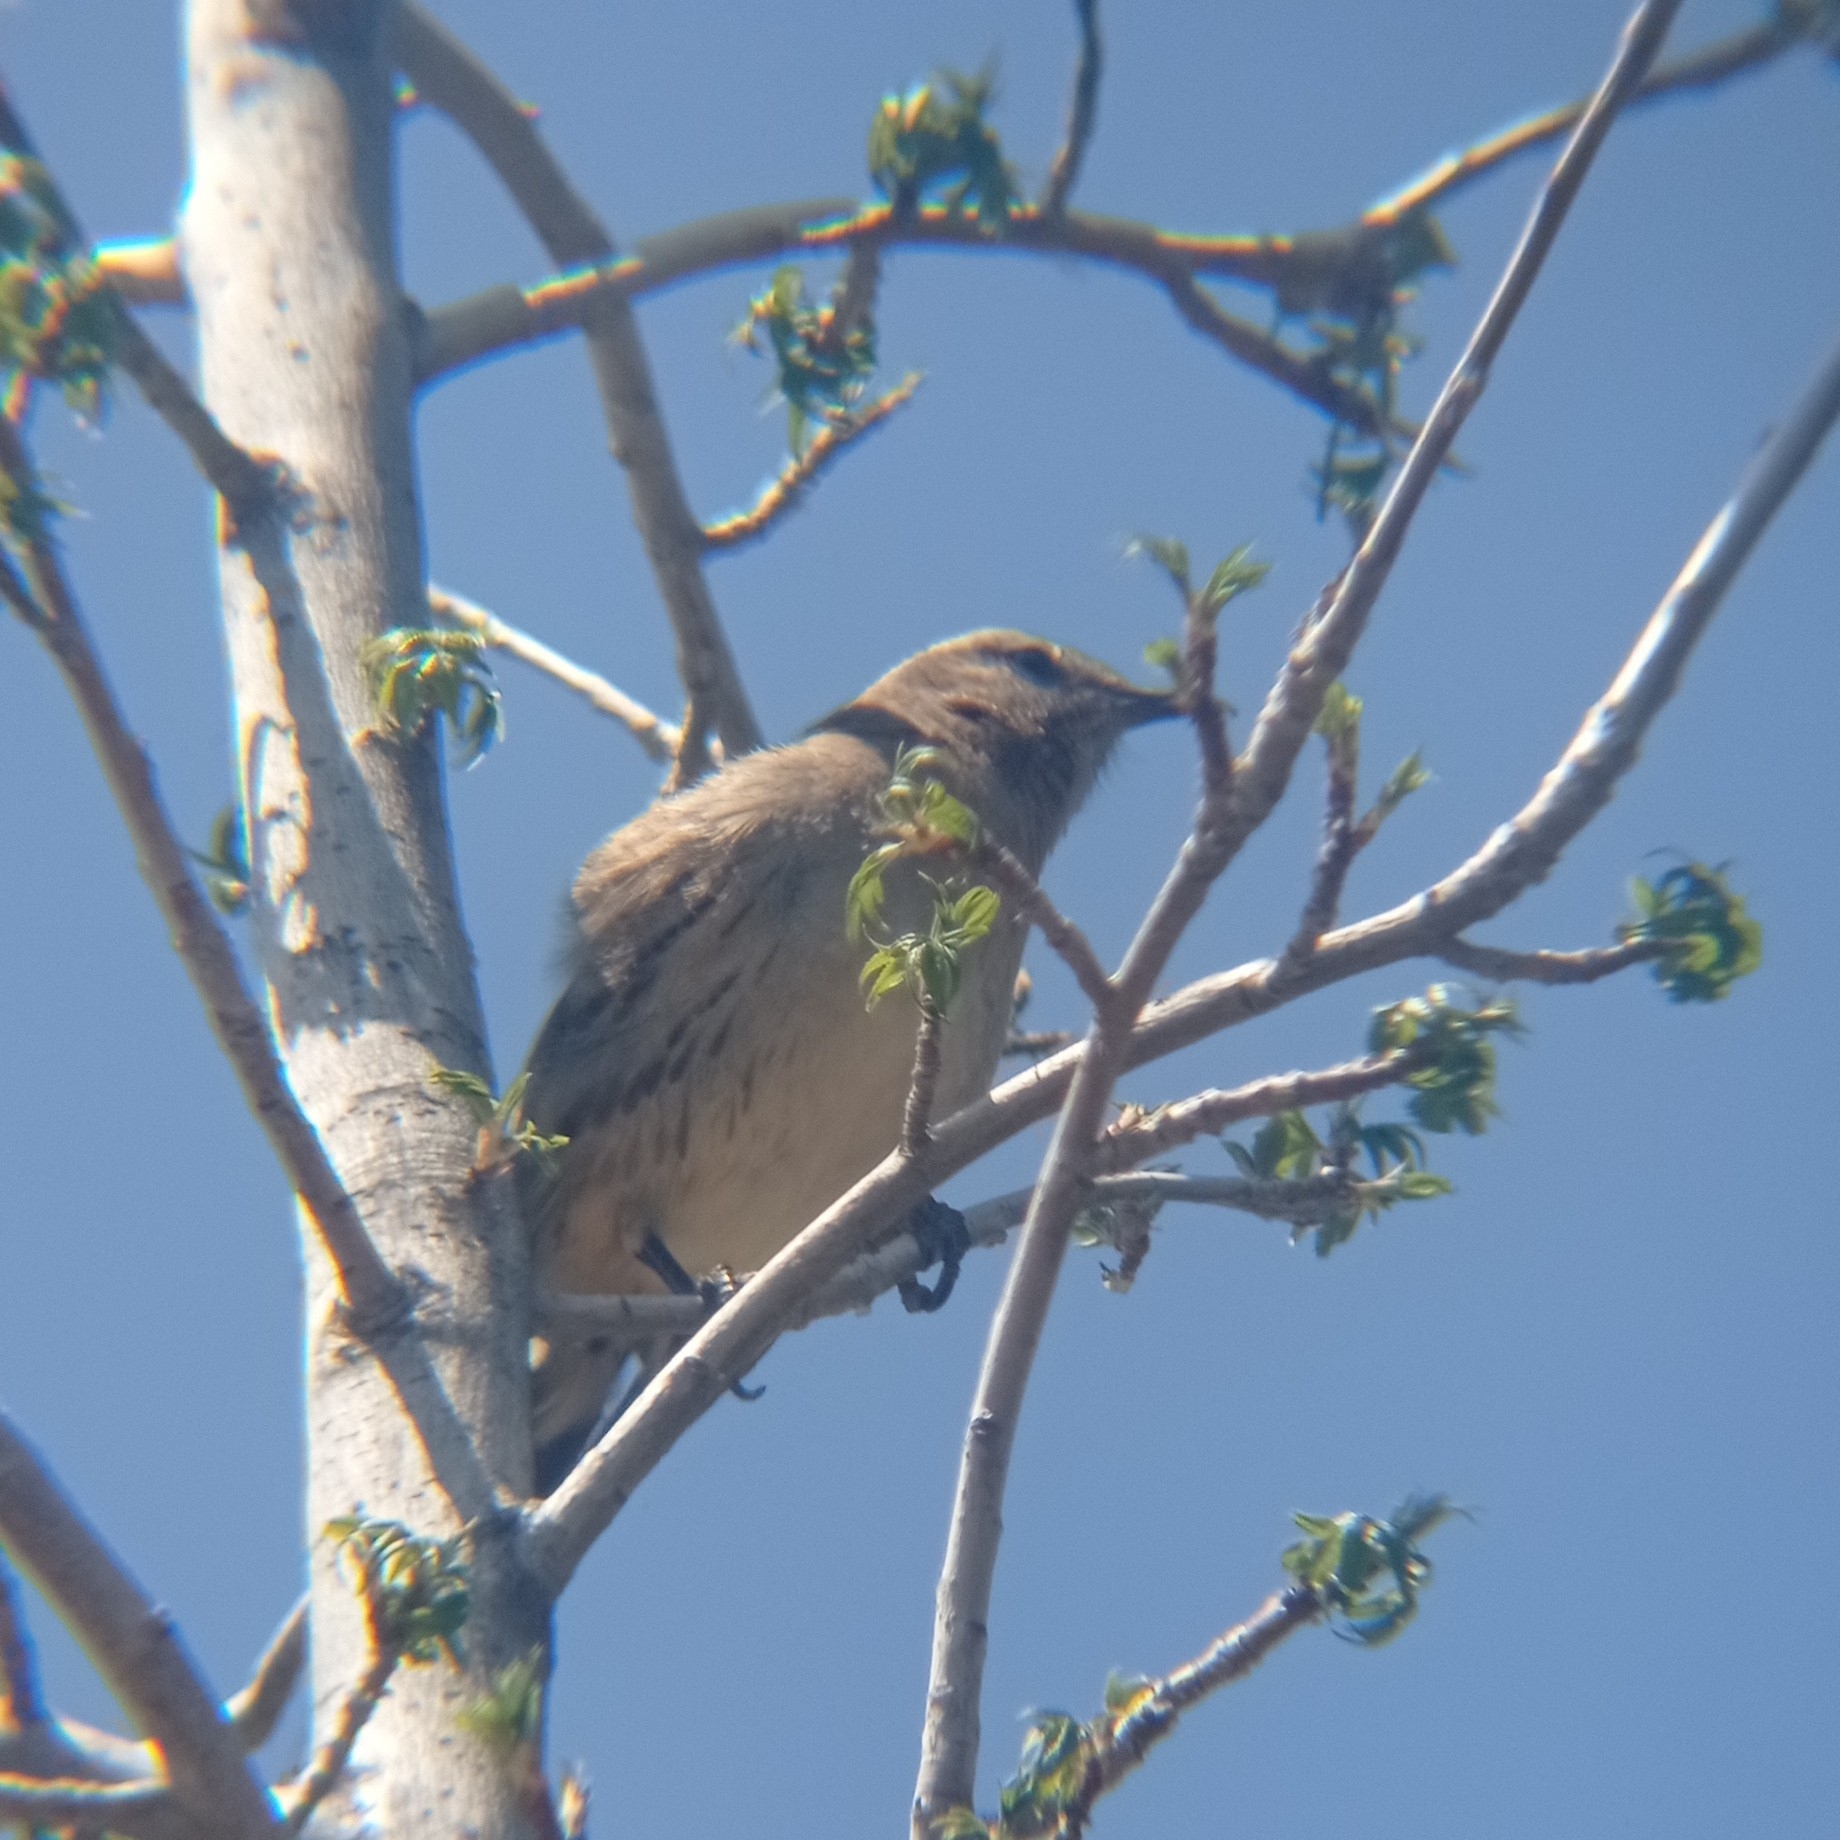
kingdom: Animalia
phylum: Chordata
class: Aves
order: Passeriformes
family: Mimidae
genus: Mimus
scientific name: Mimus thenca
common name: Chilean mockingbird
